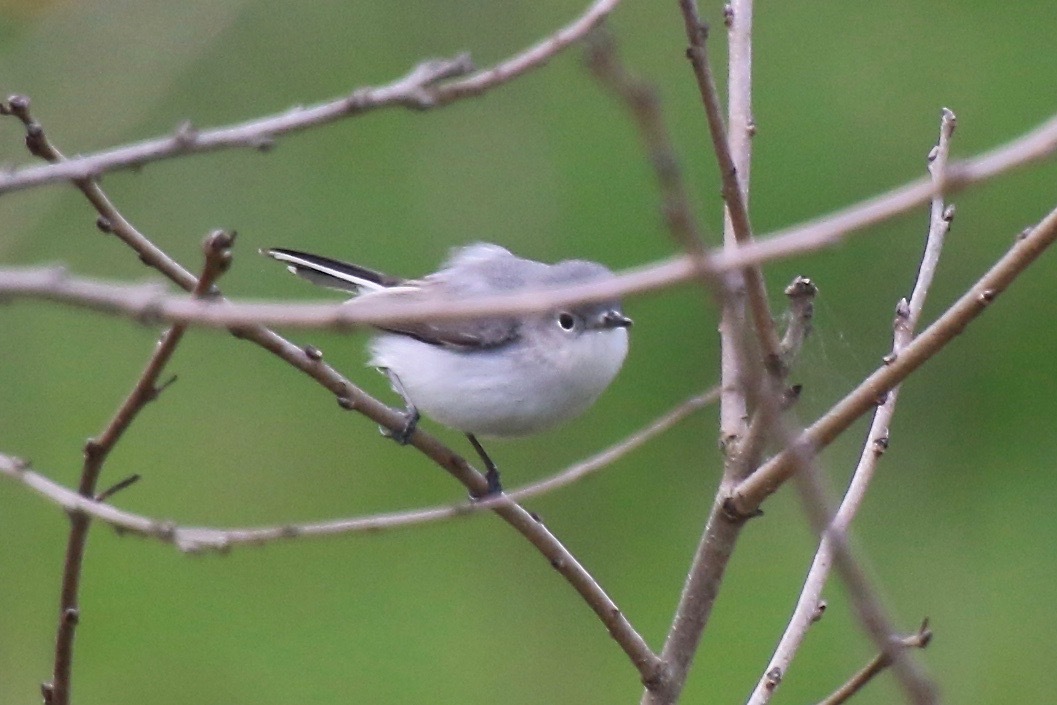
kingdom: Animalia
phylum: Chordata
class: Aves
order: Passeriformes
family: Polioptilidae
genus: Polioptila
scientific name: Polioptila caerulea
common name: Blue-gray gnatcatcher
